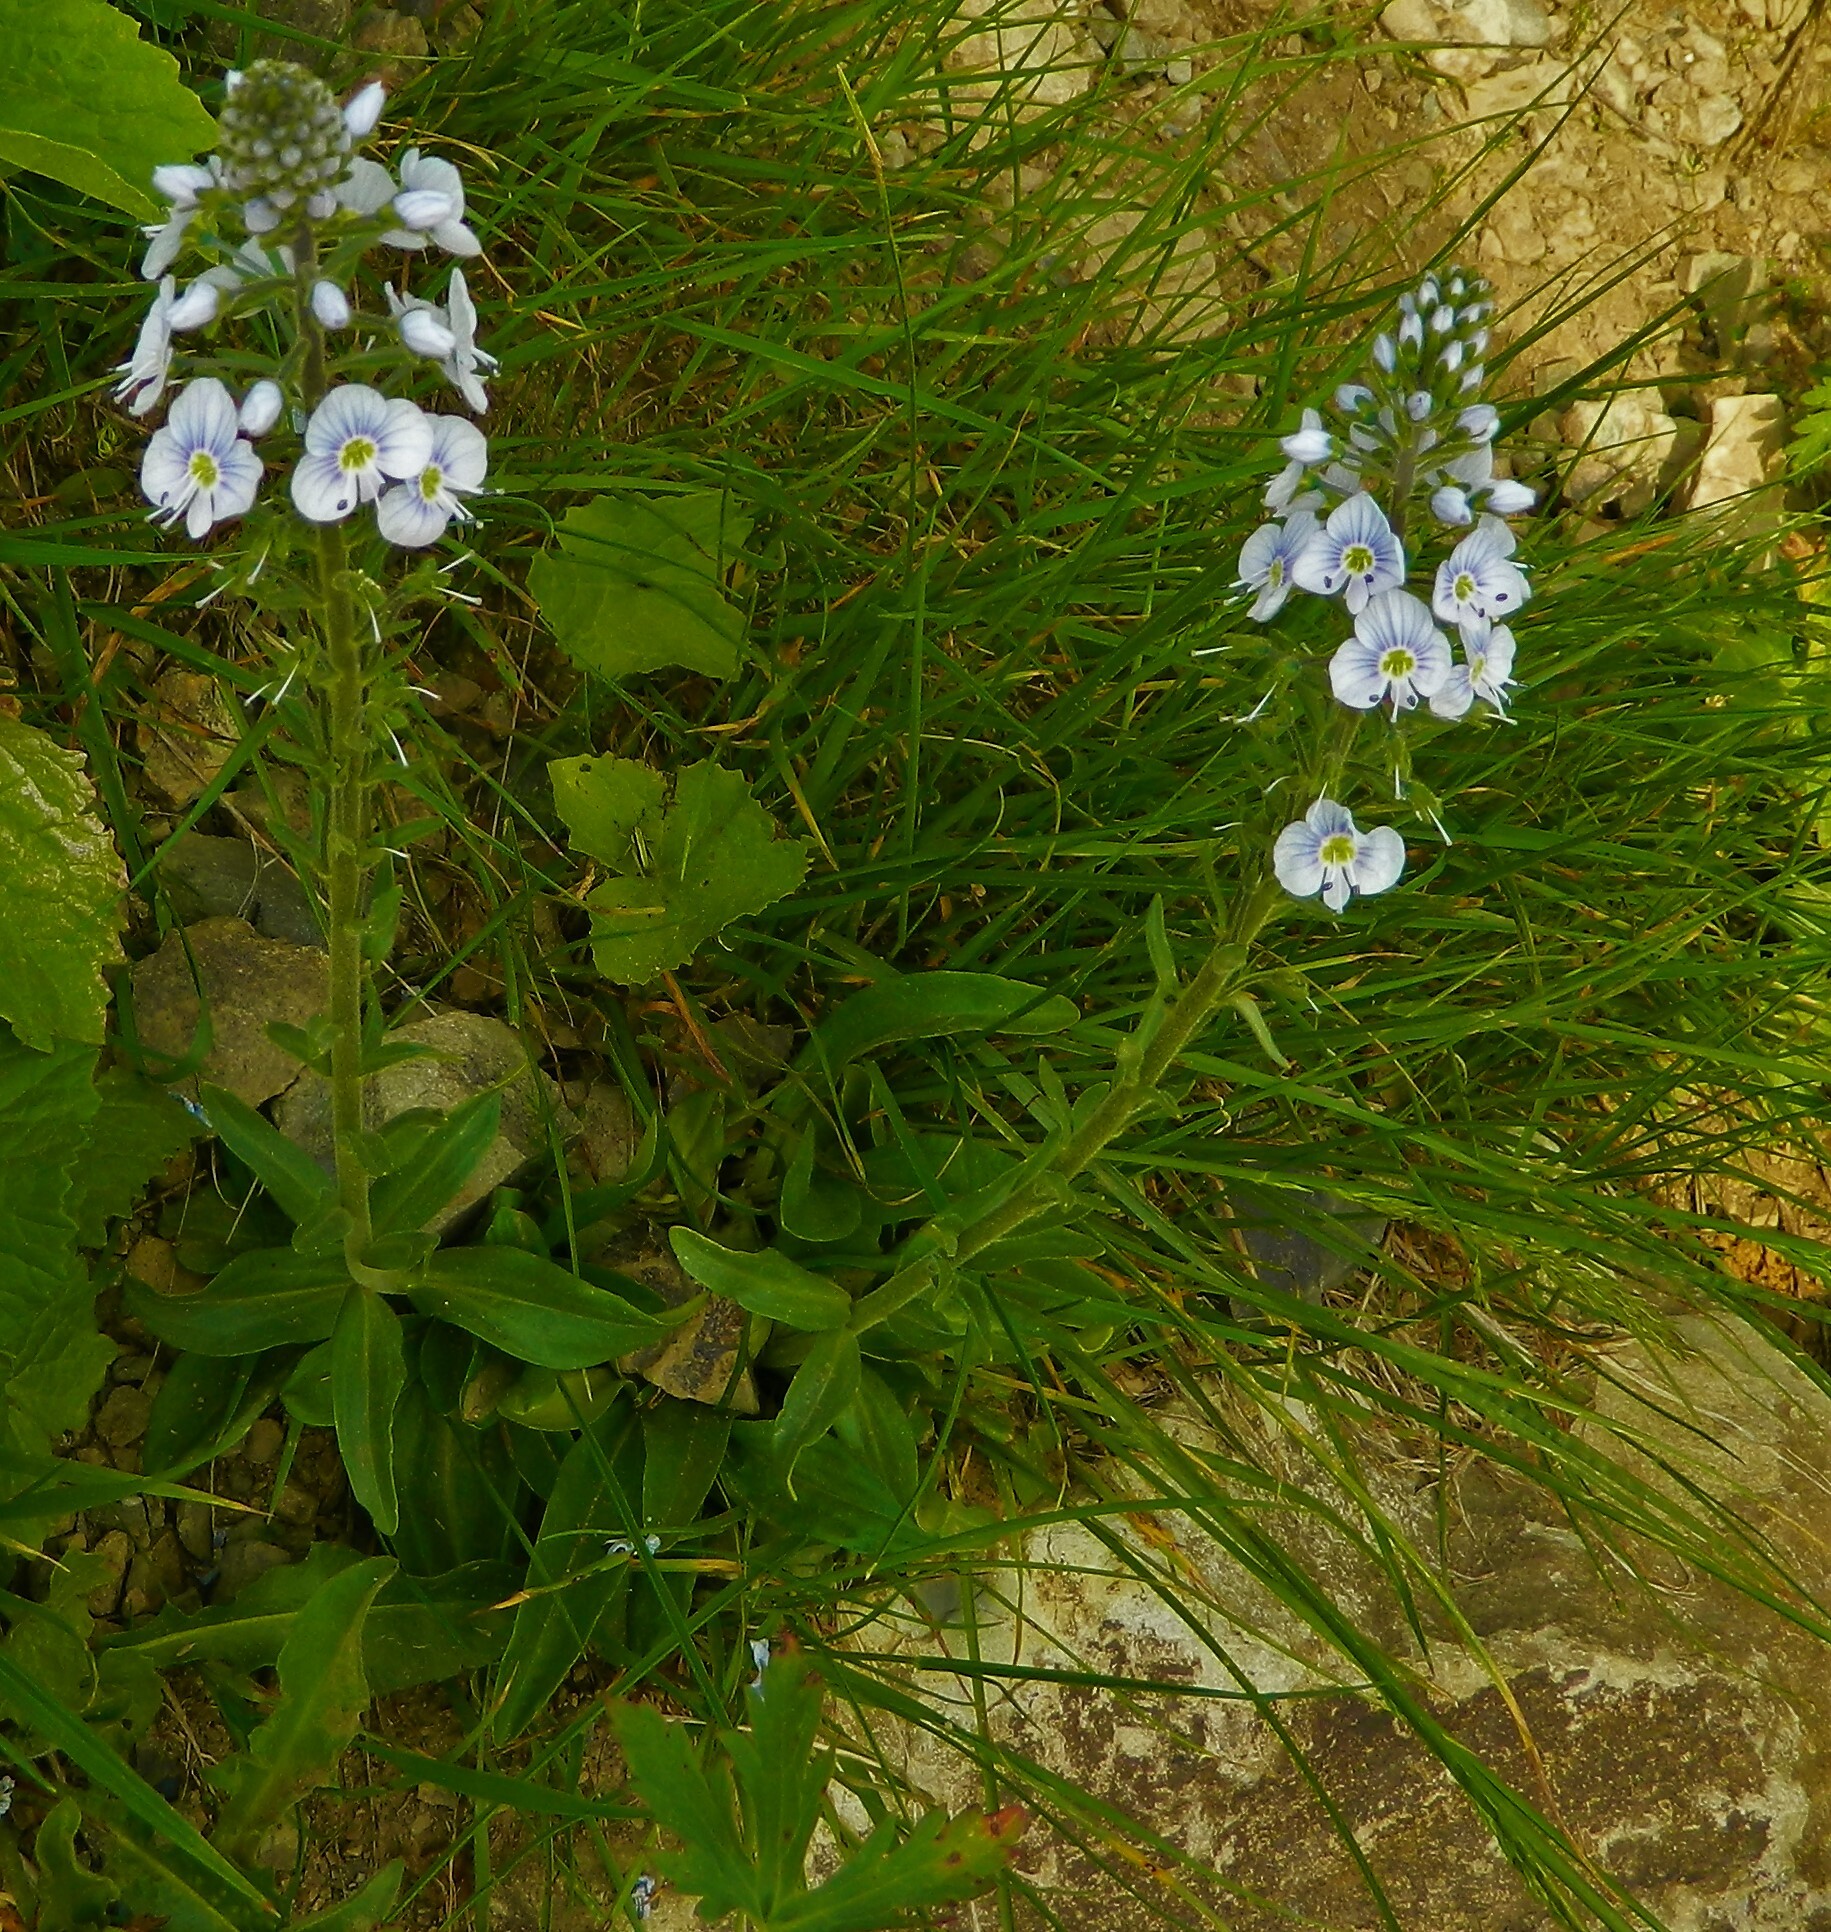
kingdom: Plantae
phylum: Tracheophyta
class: Magnoliopsida
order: Lamiales
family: Plantaginaceae
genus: Veronica
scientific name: Veronica gentianoides
